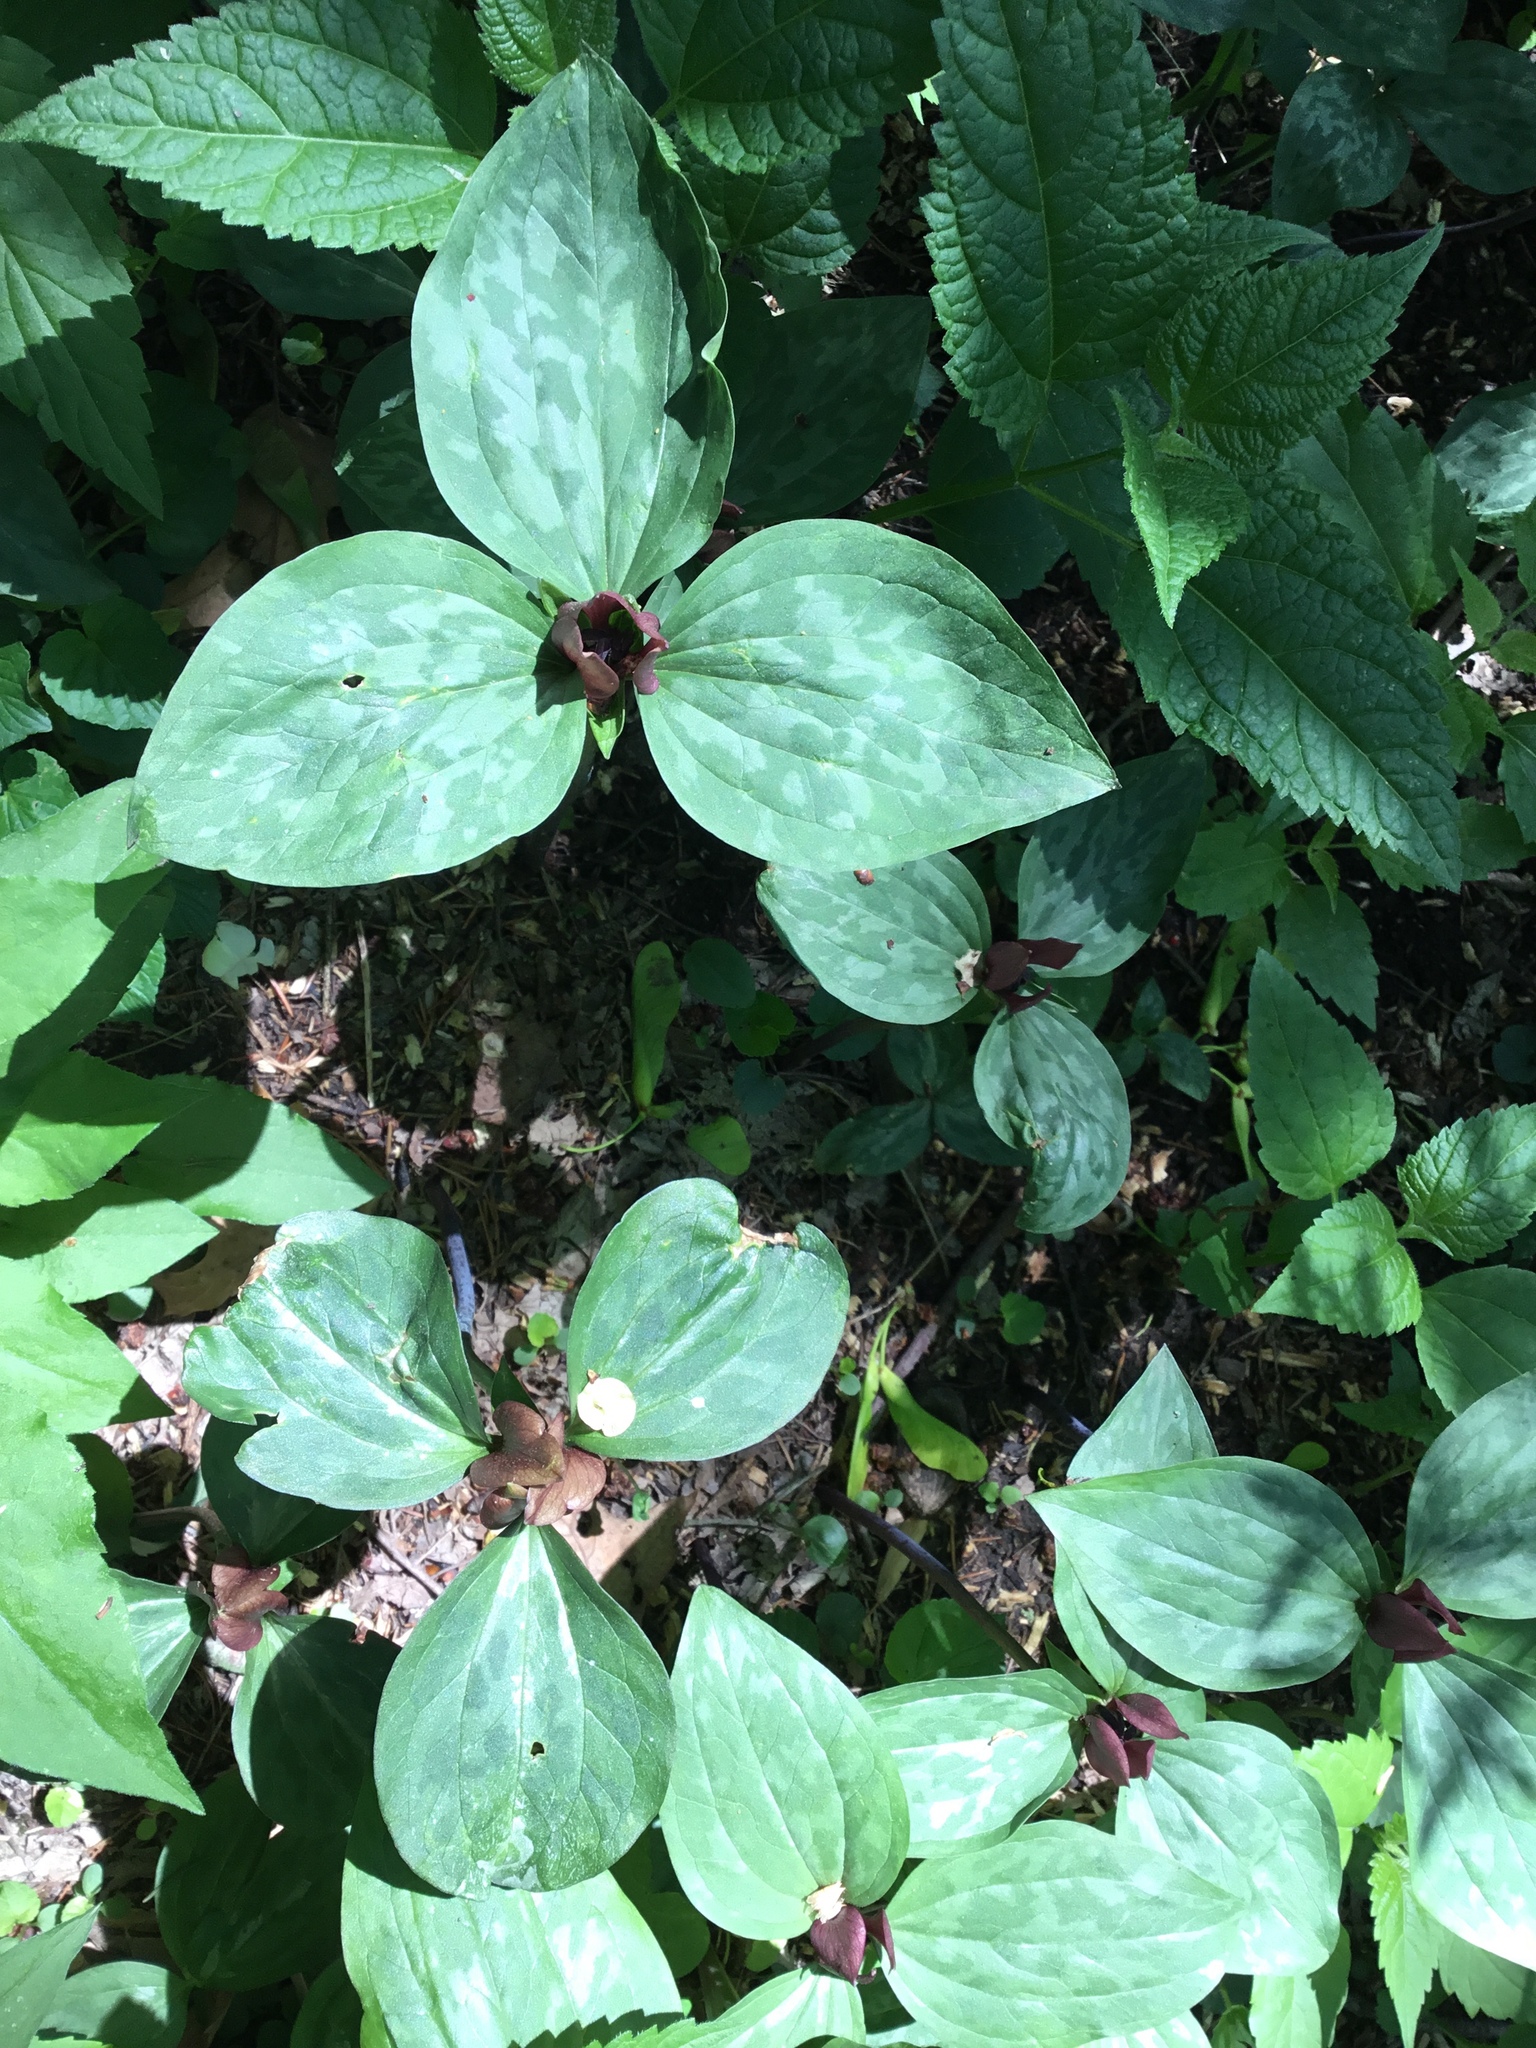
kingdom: Plantae
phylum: Tracheophyta
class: Liliopsida
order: Liliales
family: Melanthiaceae
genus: Trillium
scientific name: Trillium recurvatum
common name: Bloody butcher
